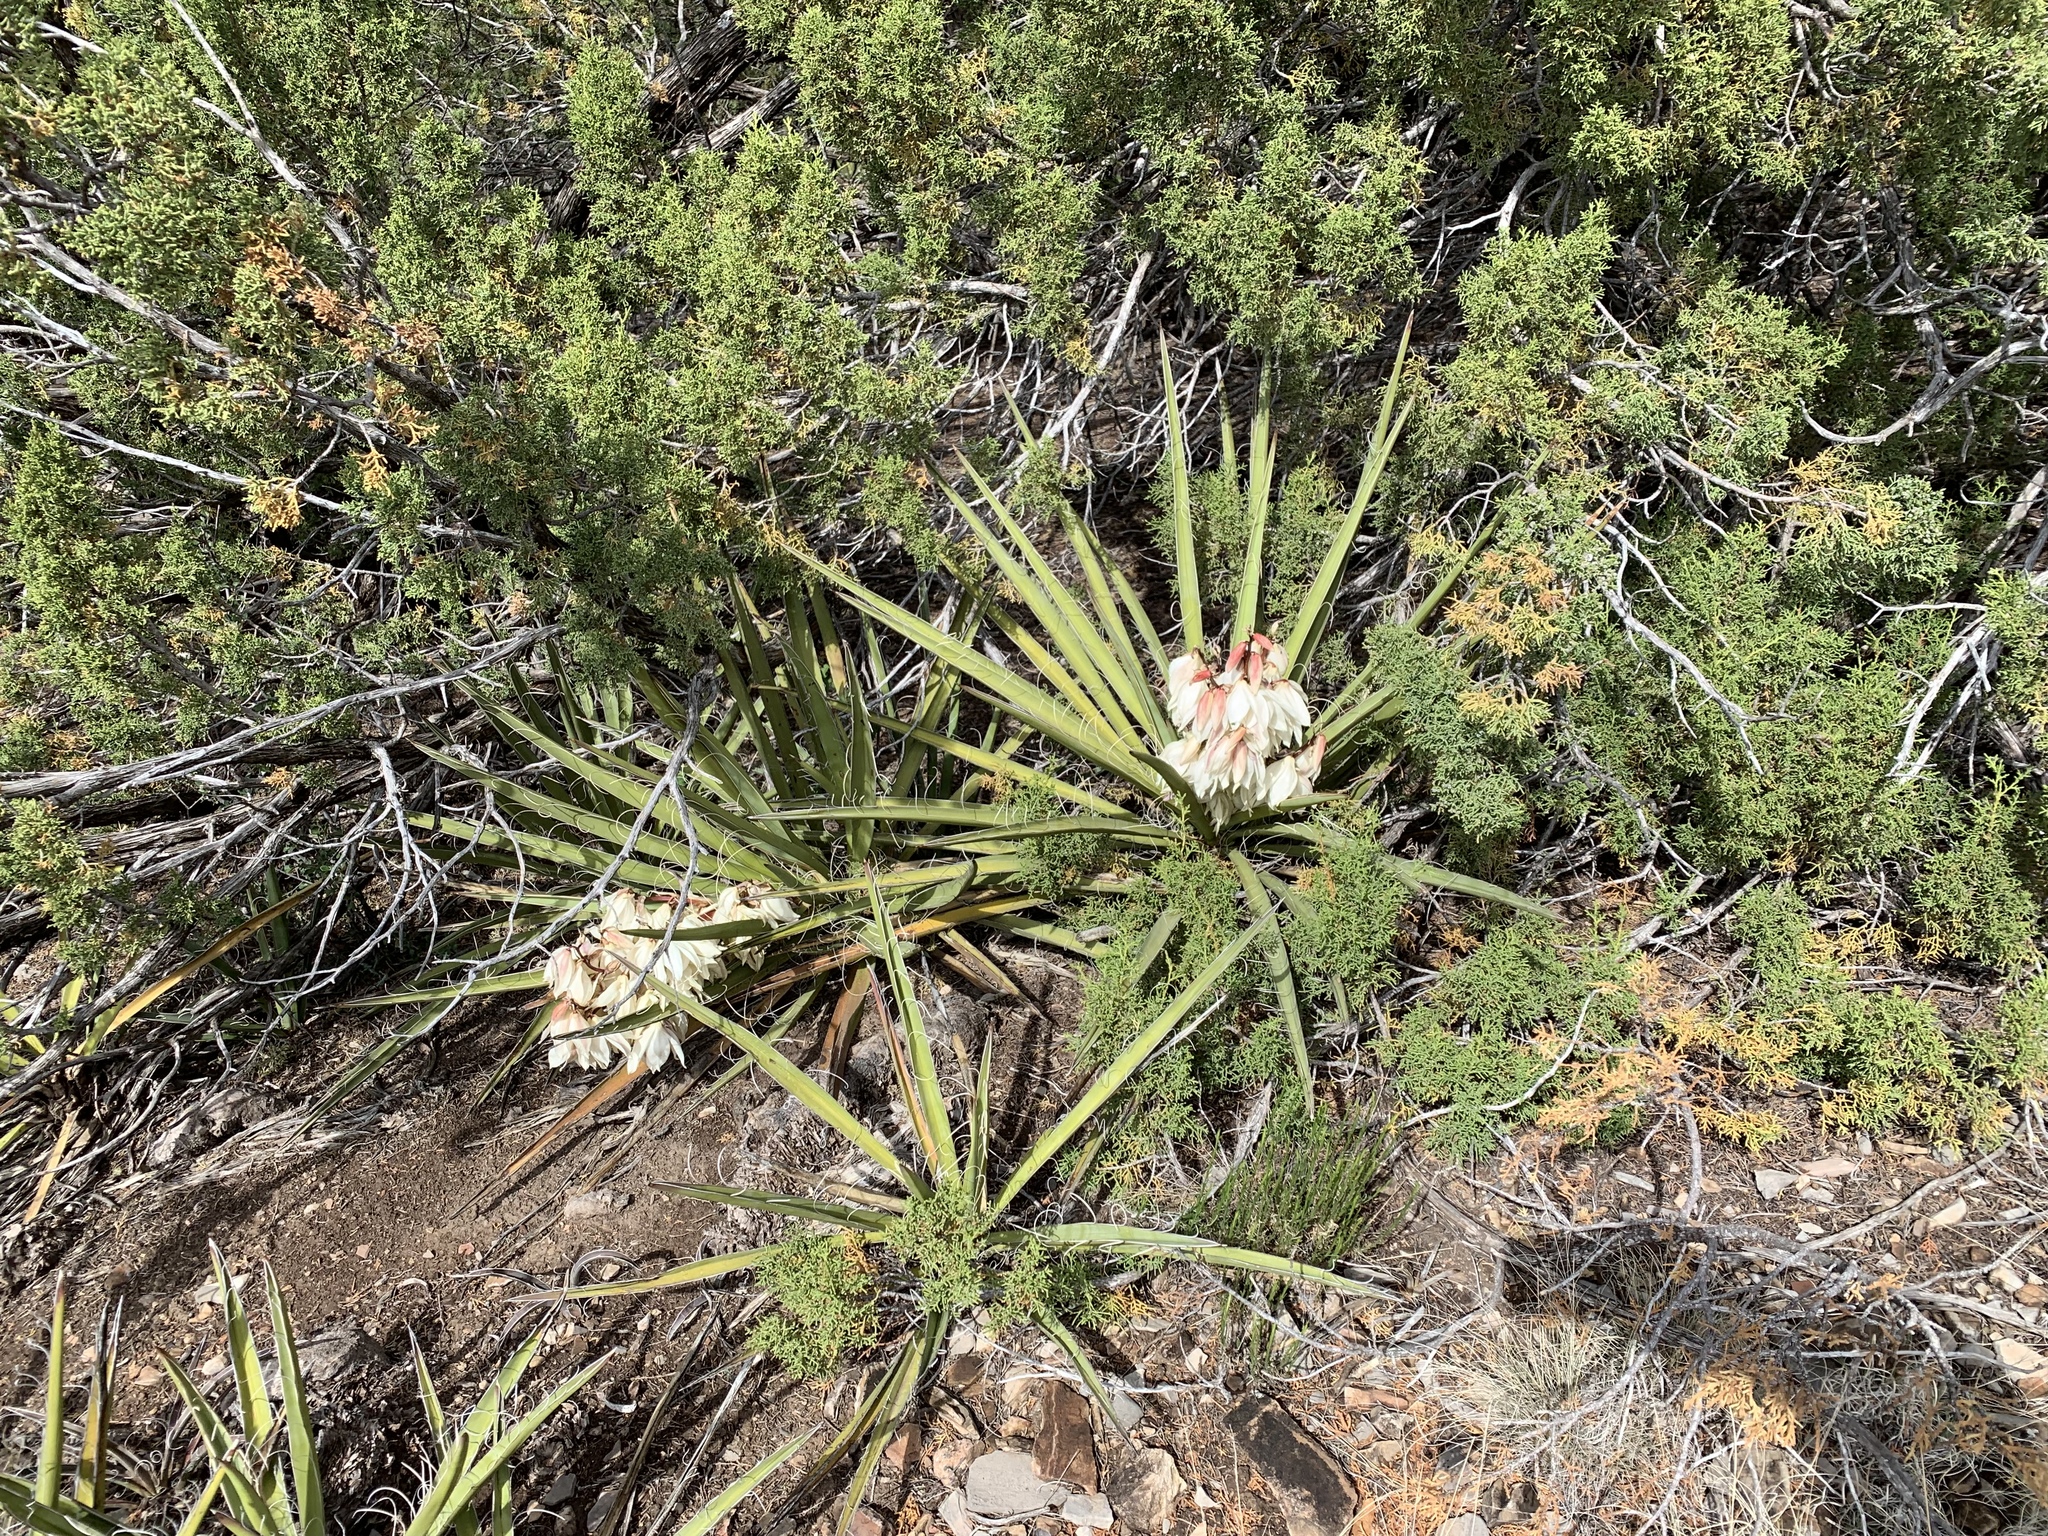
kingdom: Plantae
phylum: Tracheophyta
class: Liliopsida
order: Asparagales
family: Asparagaceae
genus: Yucca
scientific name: Yucca baccata
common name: Banana yucca
